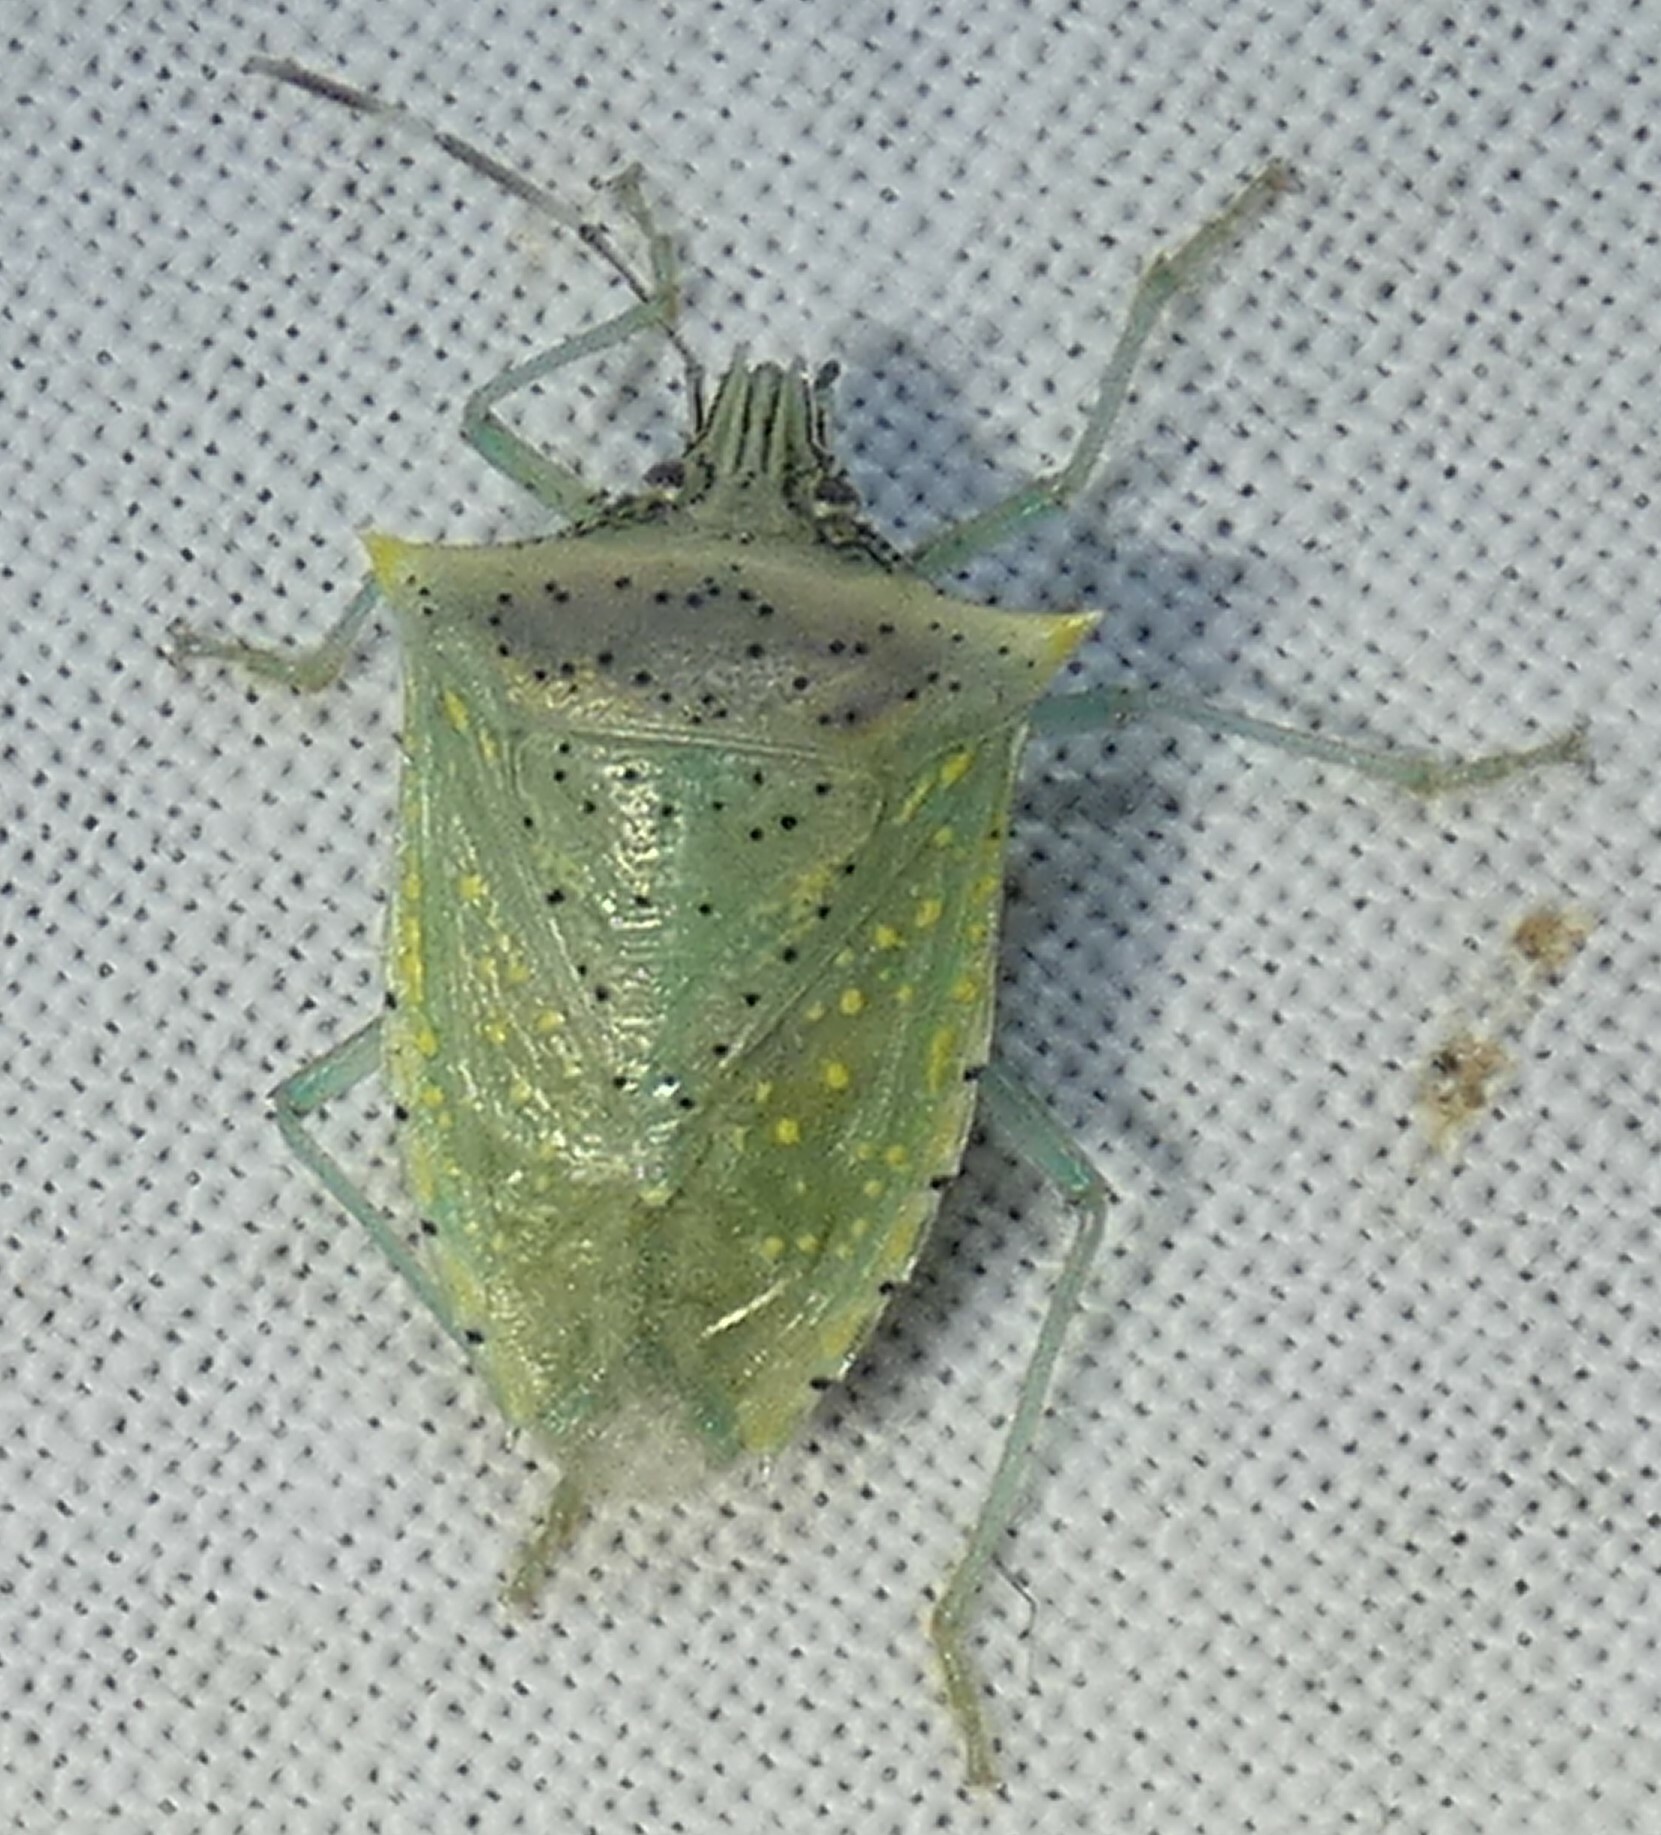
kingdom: Animalia
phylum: Arthropoda
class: Insecta
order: Hemiptera
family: Pentatomidae
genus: Arvelius
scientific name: Arvelius albopunctatus
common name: Tomato stink bug
